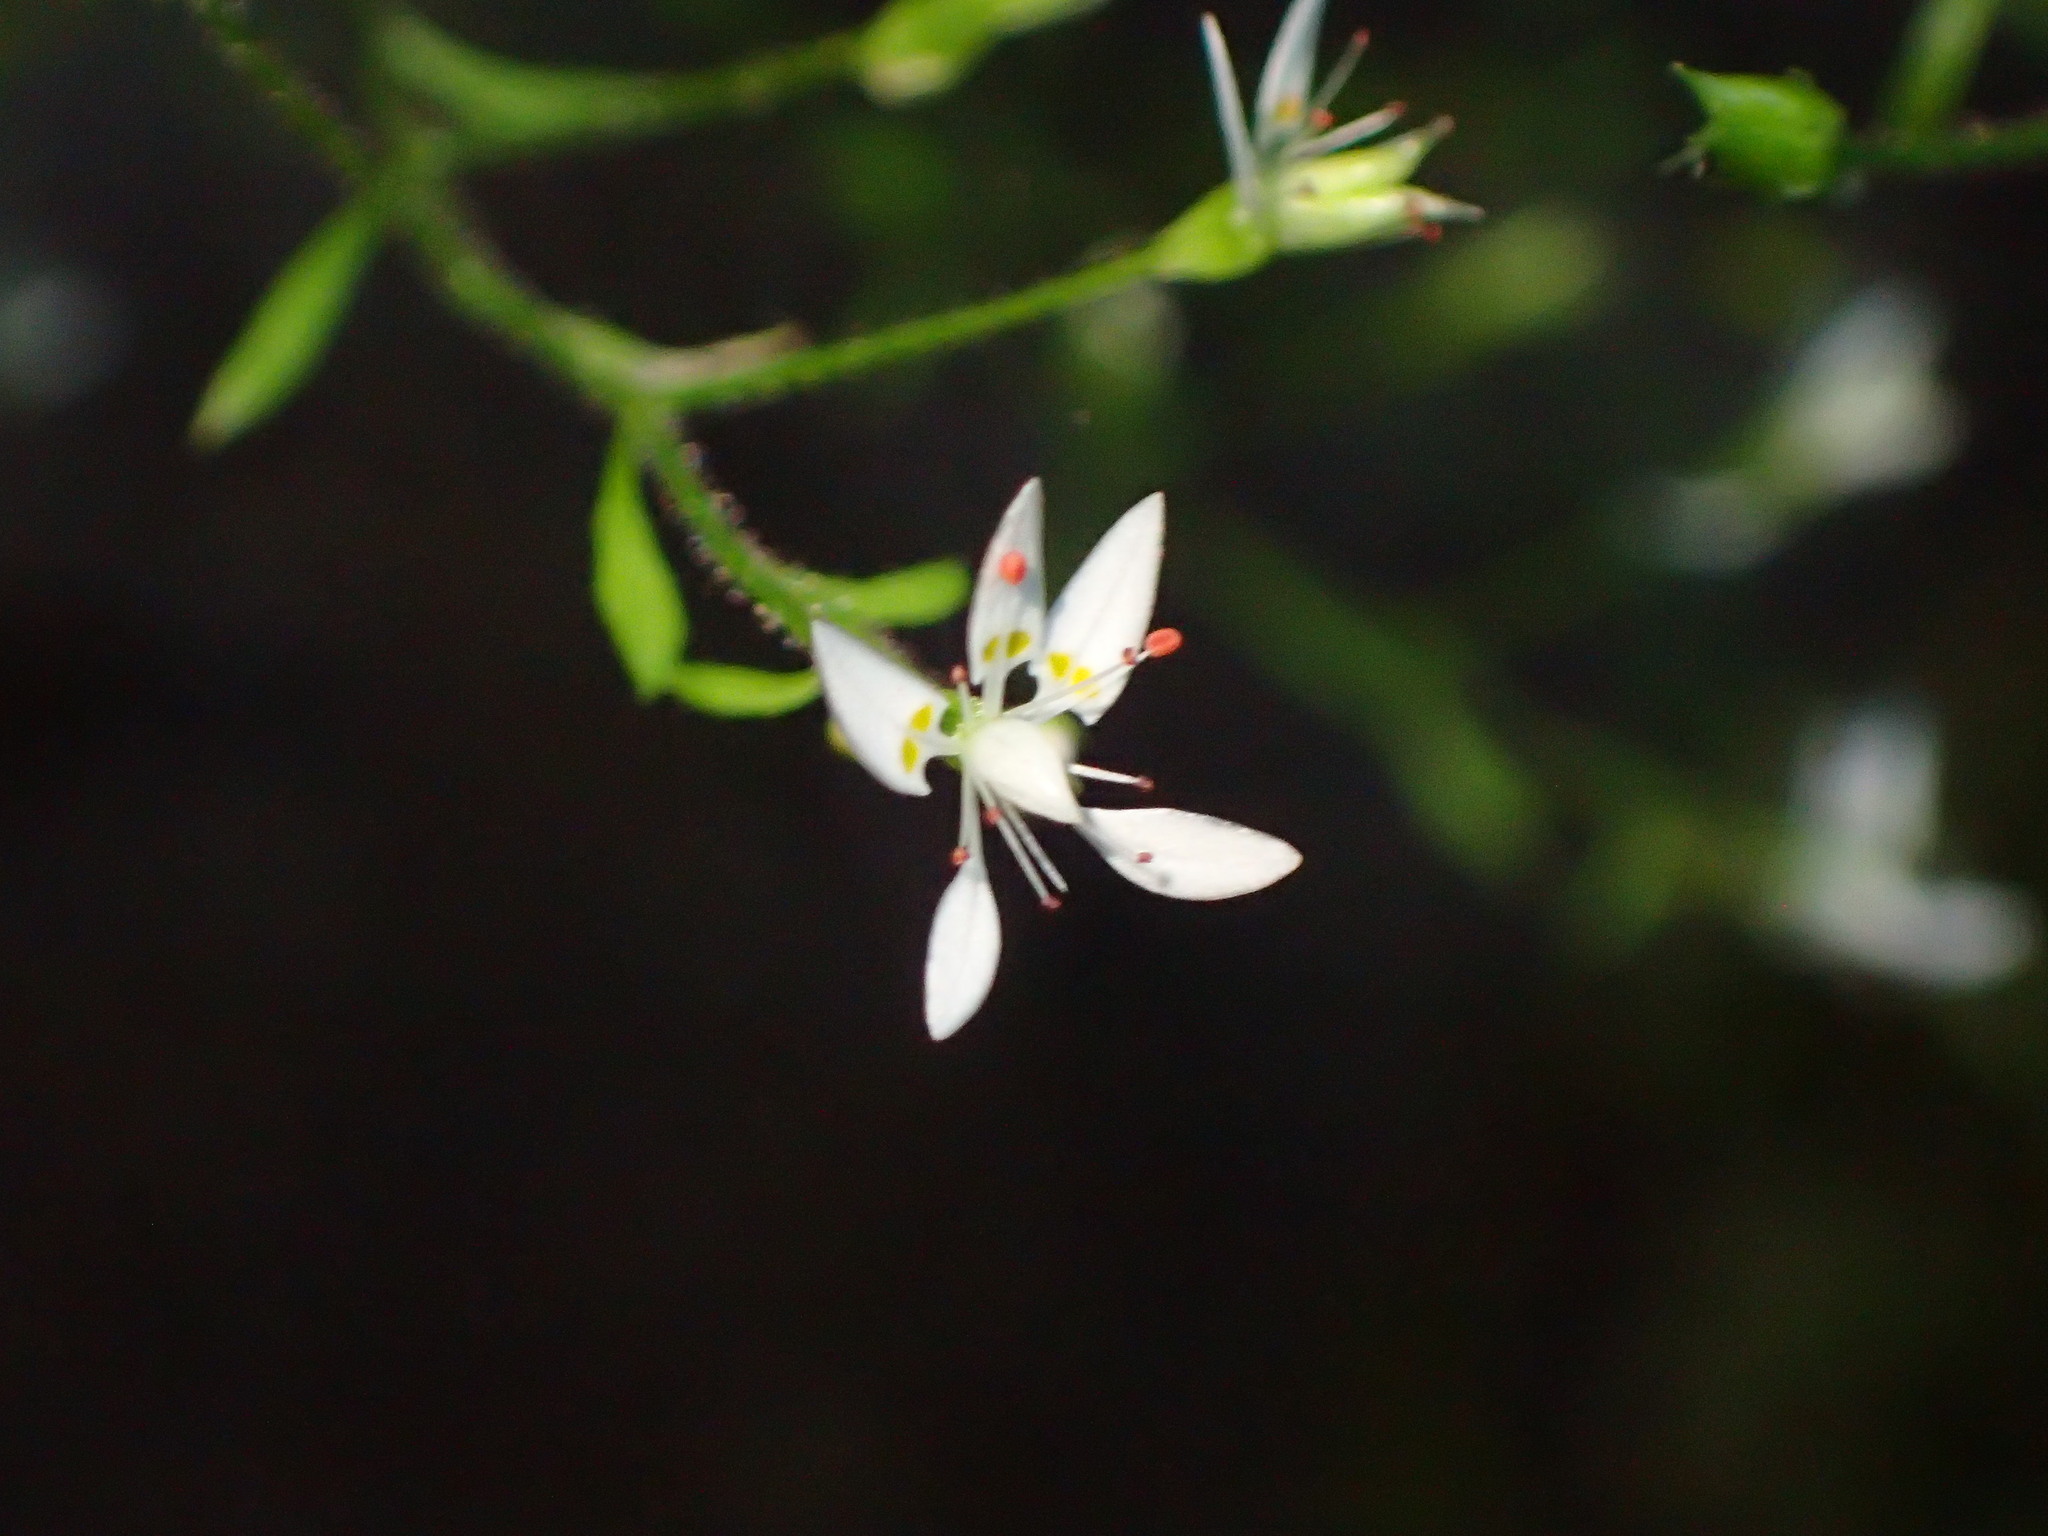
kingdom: Plantae
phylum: Tracheophyta
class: Magnoliopsida
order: Saxifragales
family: Saxifragaceae
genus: Micranthes
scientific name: Micranthes petiolaris
